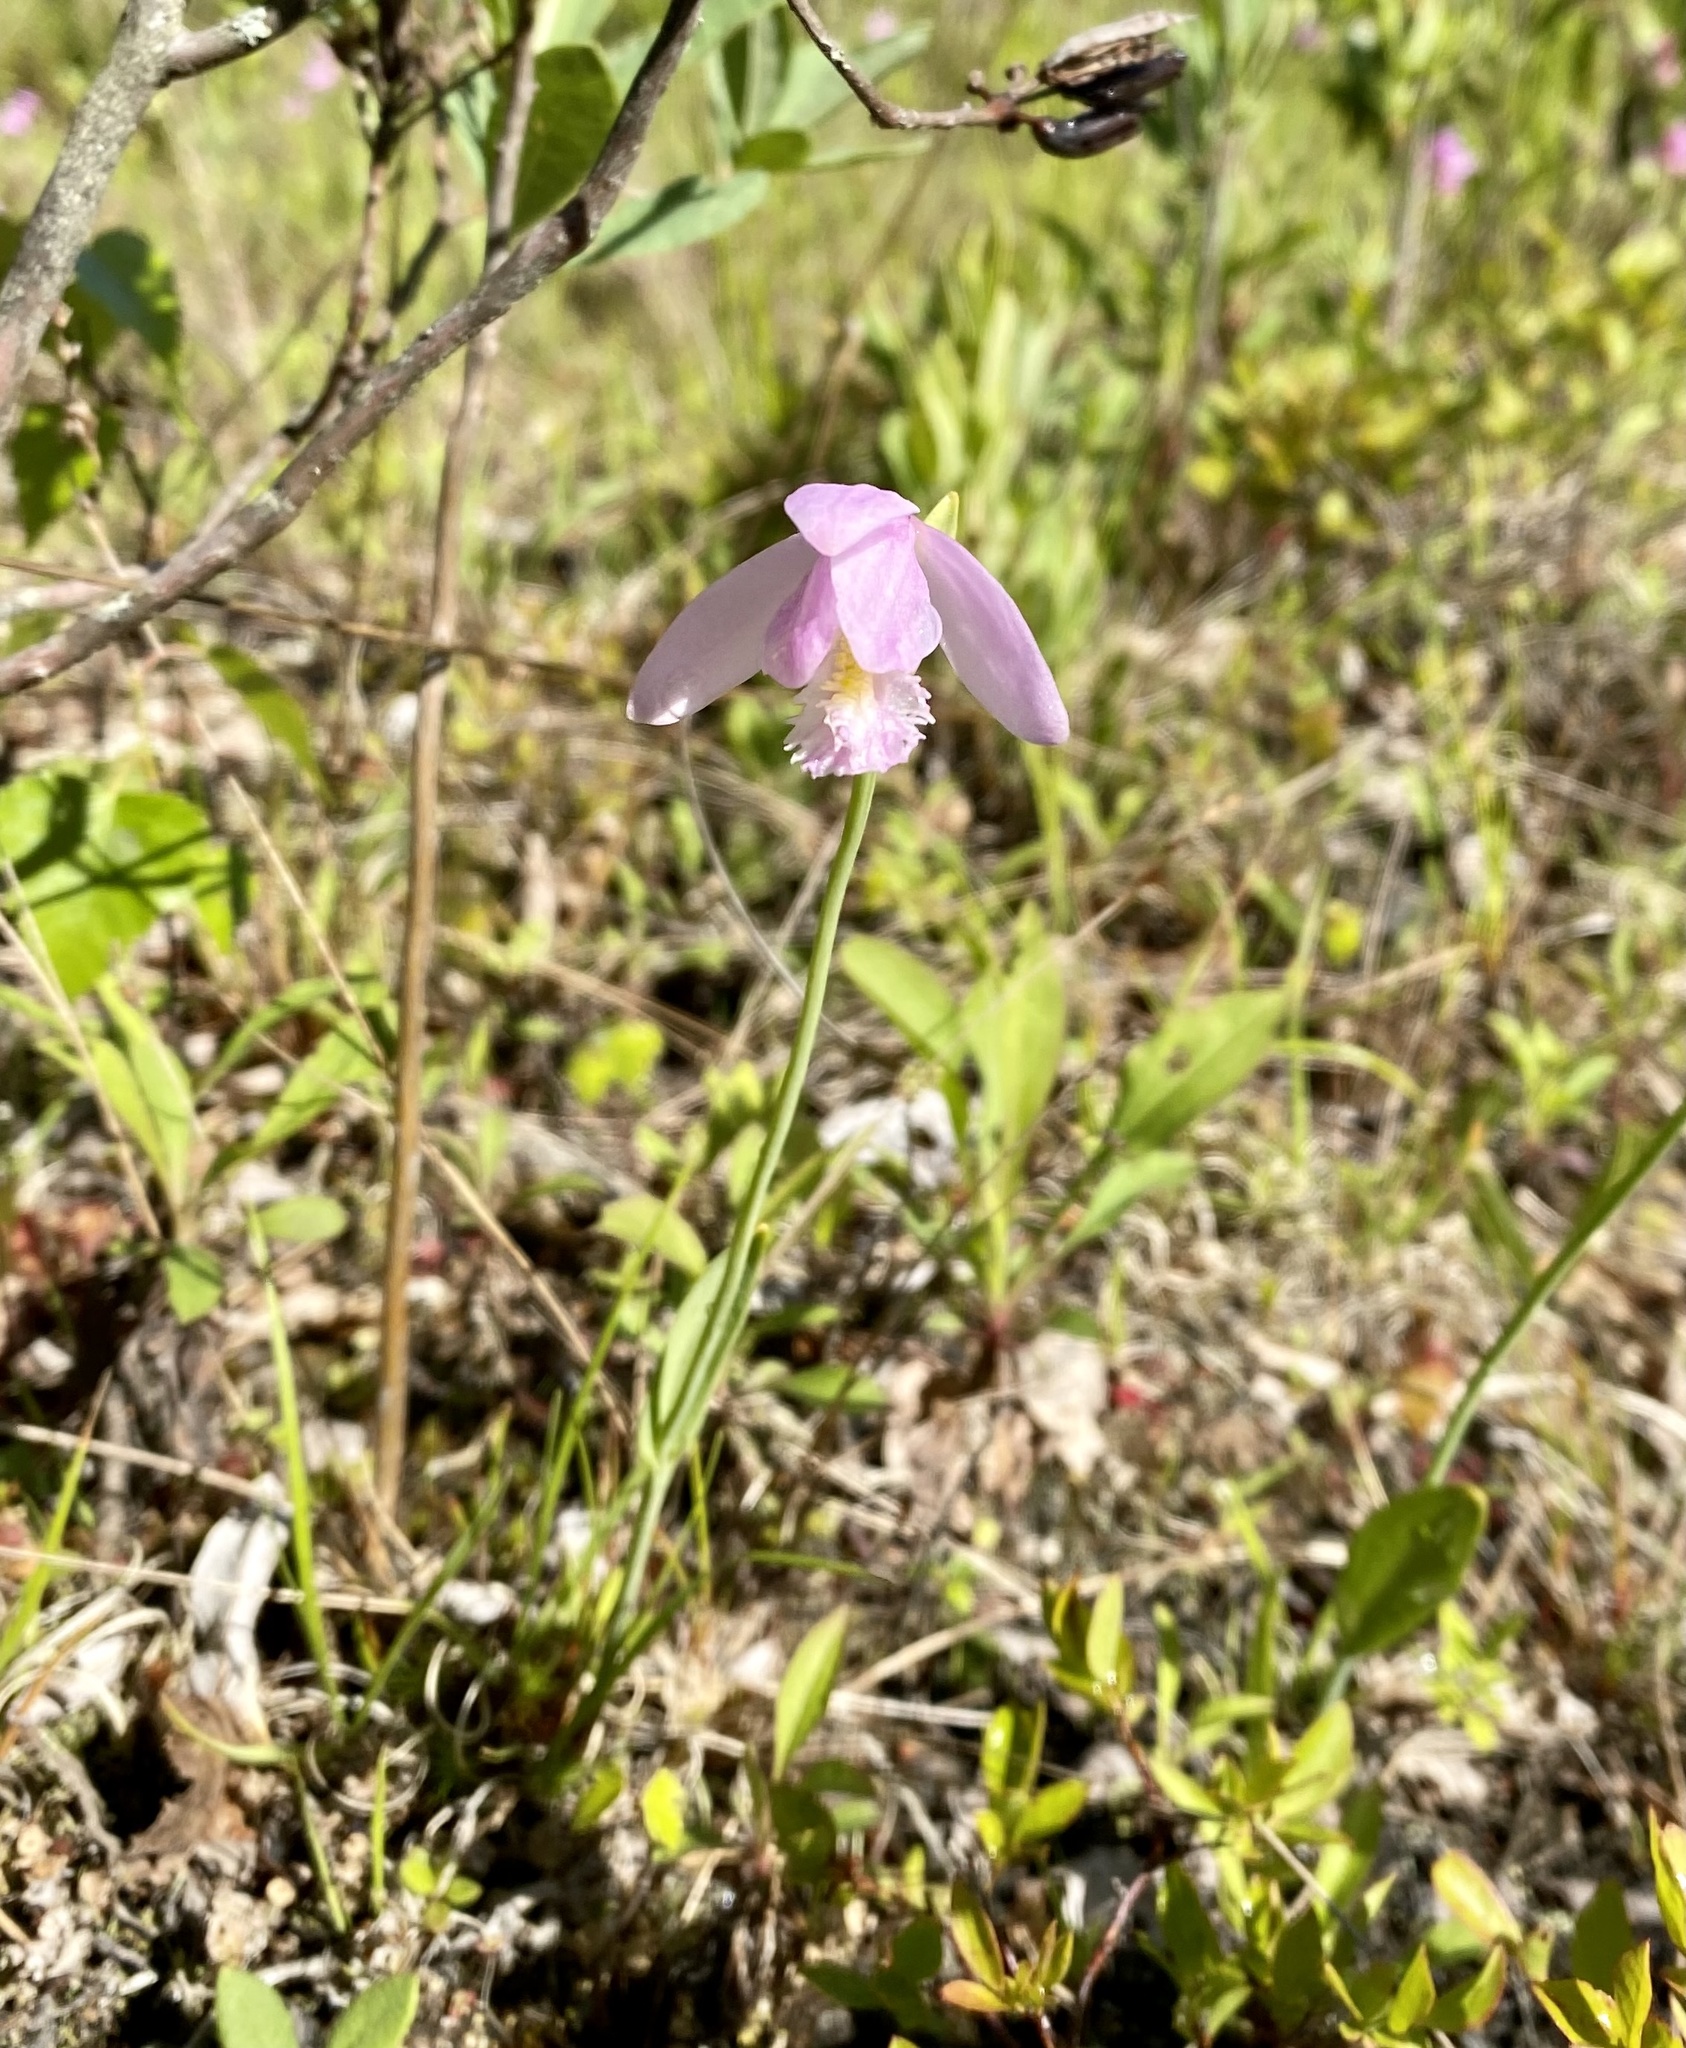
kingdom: Plantae
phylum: Tracheophyta
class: Liliopsida
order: Asparagales
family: Orchidaceae
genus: Pogonia
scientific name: Pogonia ophioglossoides
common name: Rose pogonia
